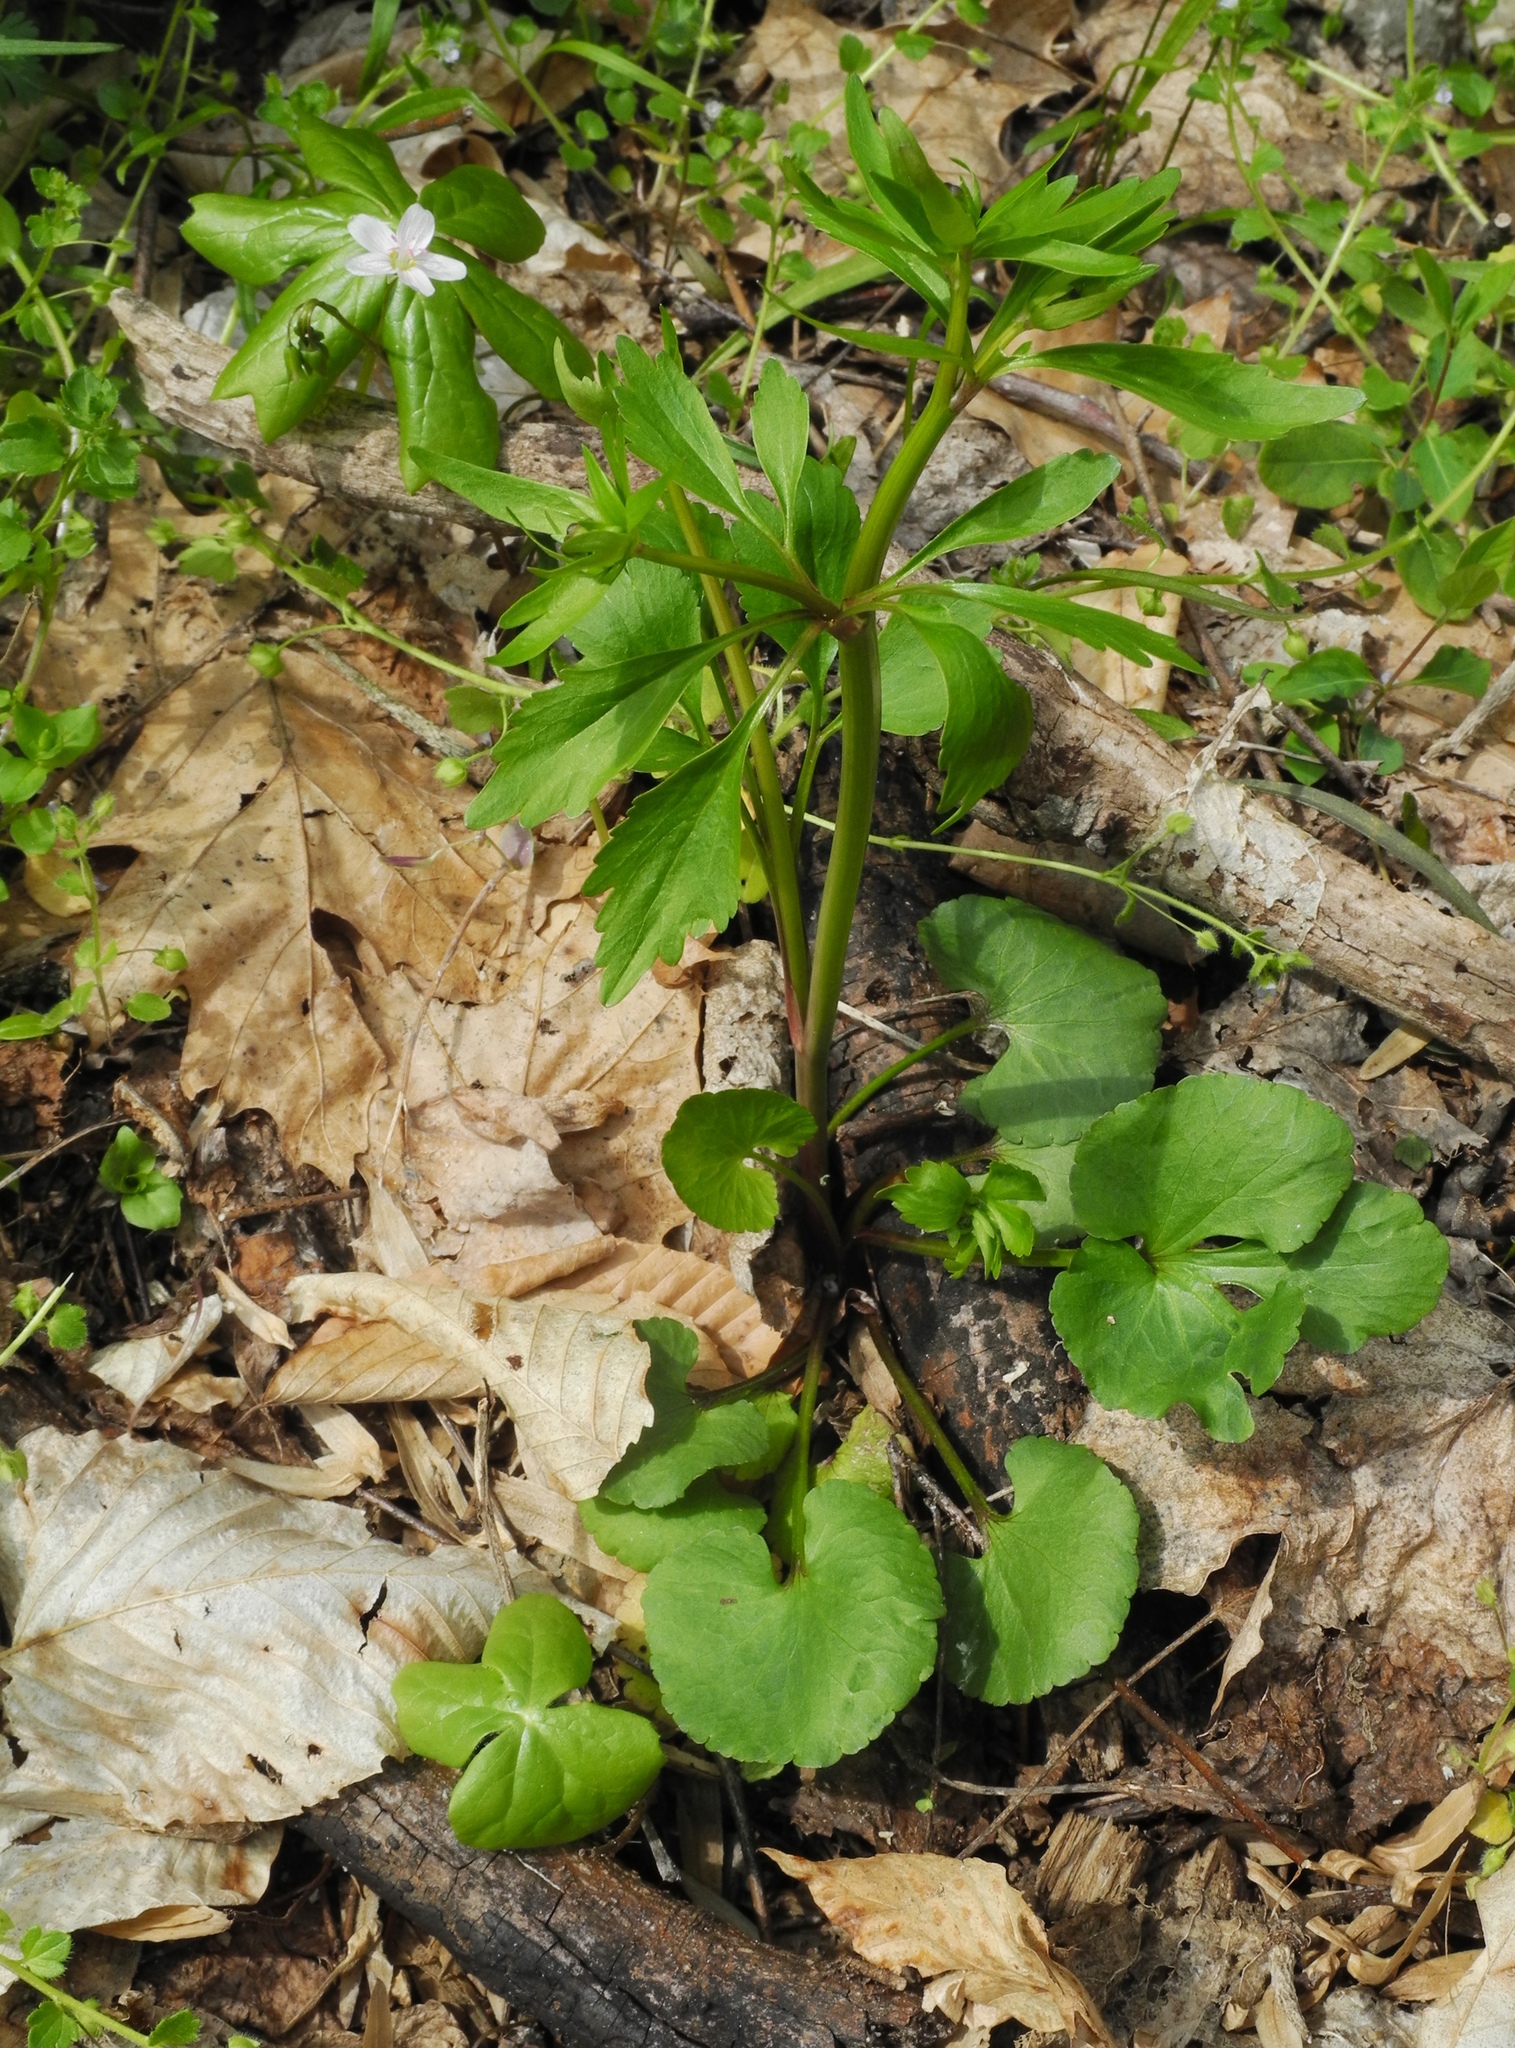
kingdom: Plantae
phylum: Tracheophyta
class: Magnoliopsida
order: Ranunculales
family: Ranunculaceae
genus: Ranunculus
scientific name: Ranunculus abortivus
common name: Early wood buttercup
